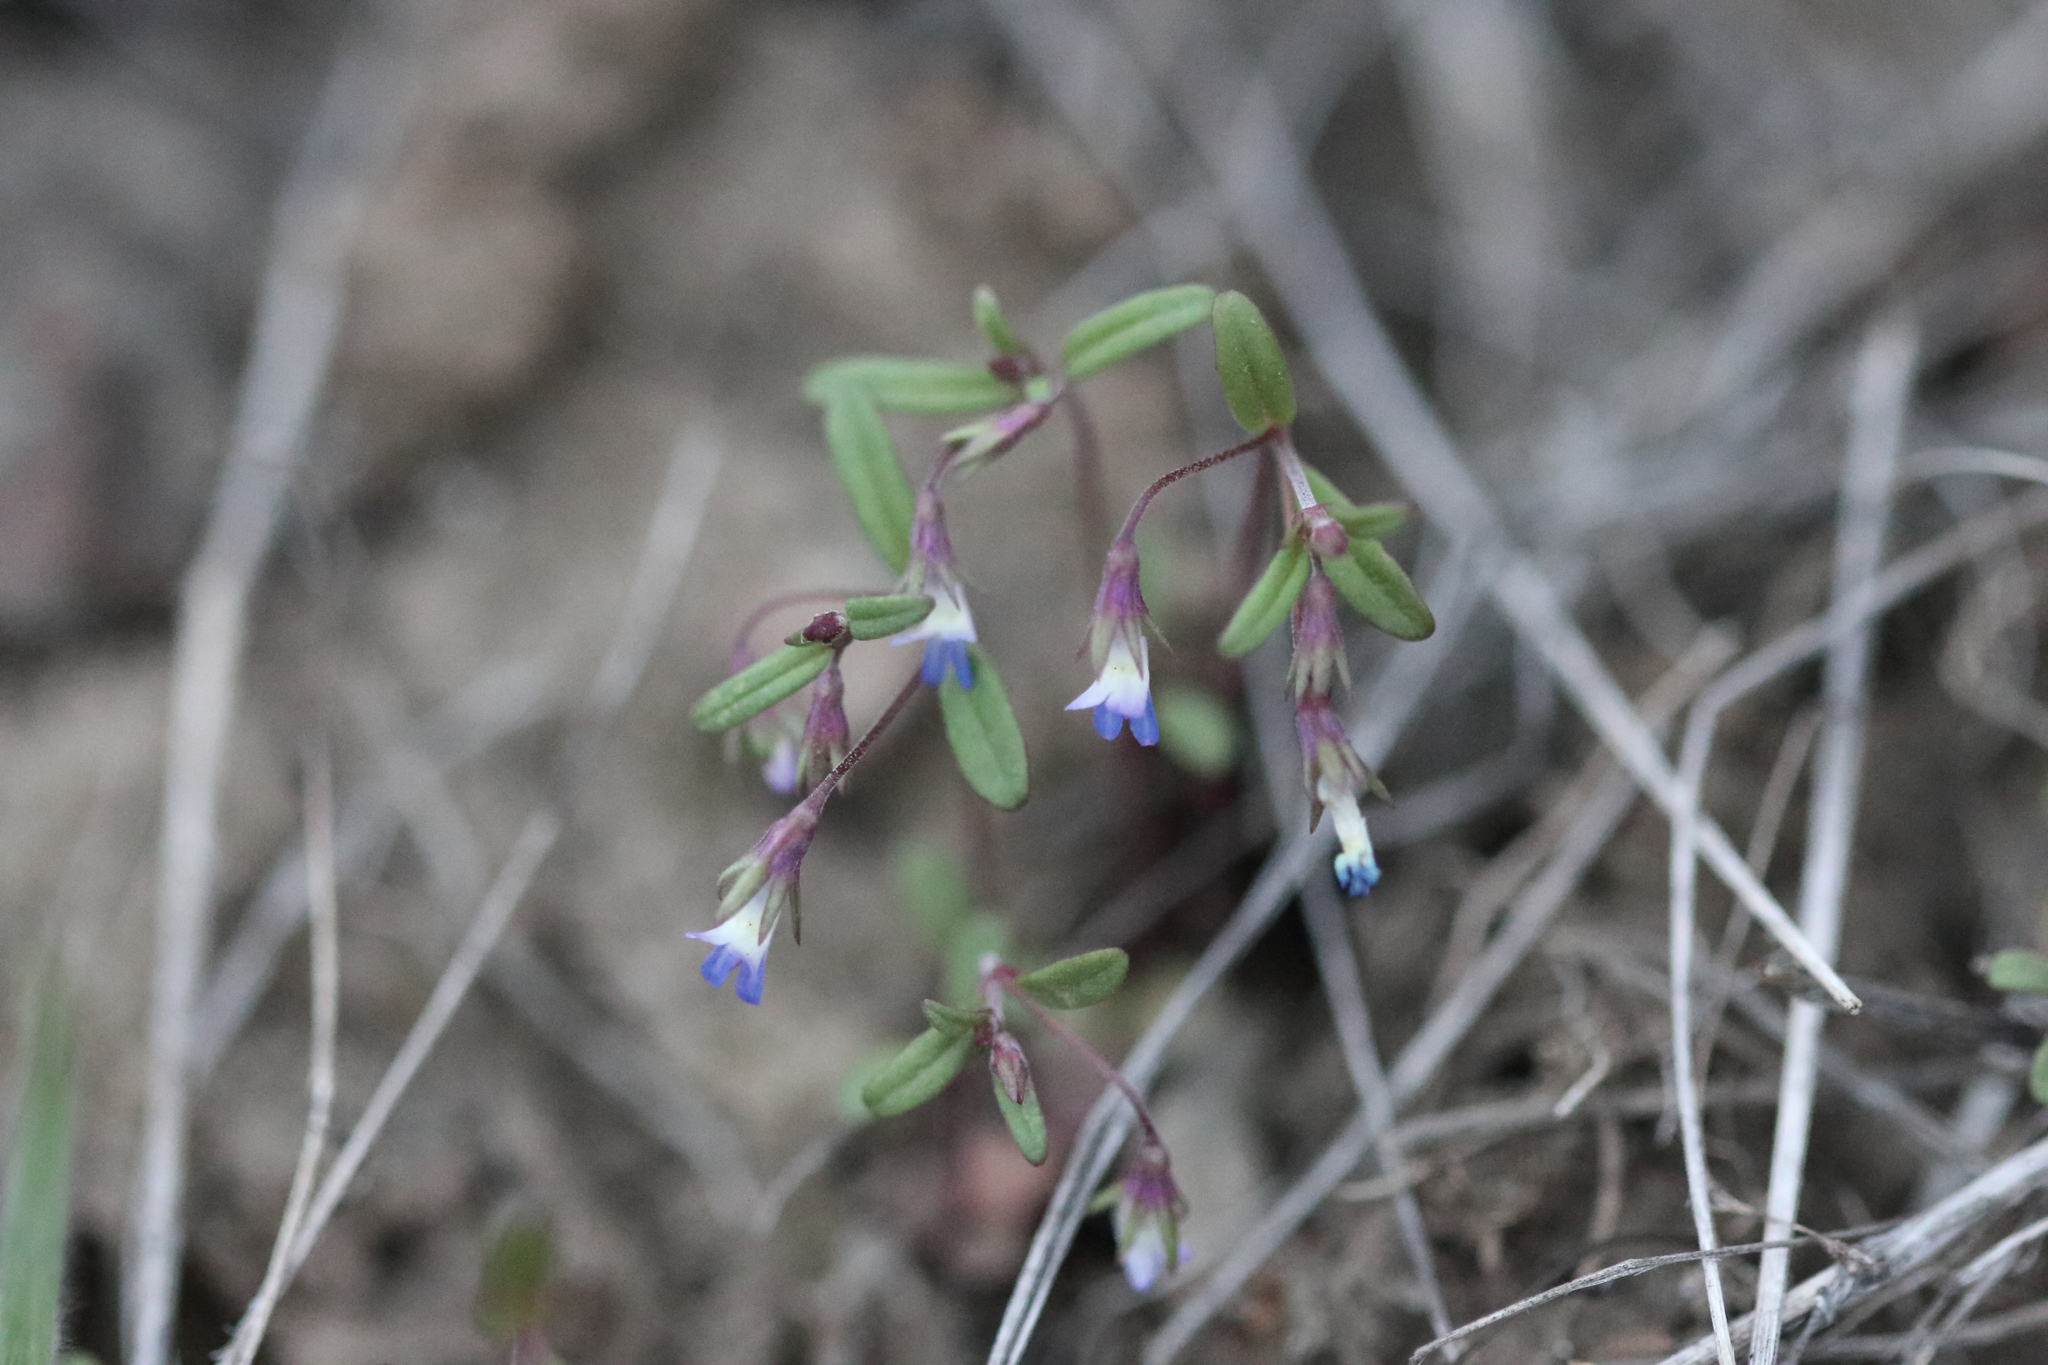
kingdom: Plantae
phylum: Tracheophyta
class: Magnoliopsida
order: Lamiales
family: Plantaginaceae
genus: Collinsia
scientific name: Collinsia parviflora
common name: Blue-lips
